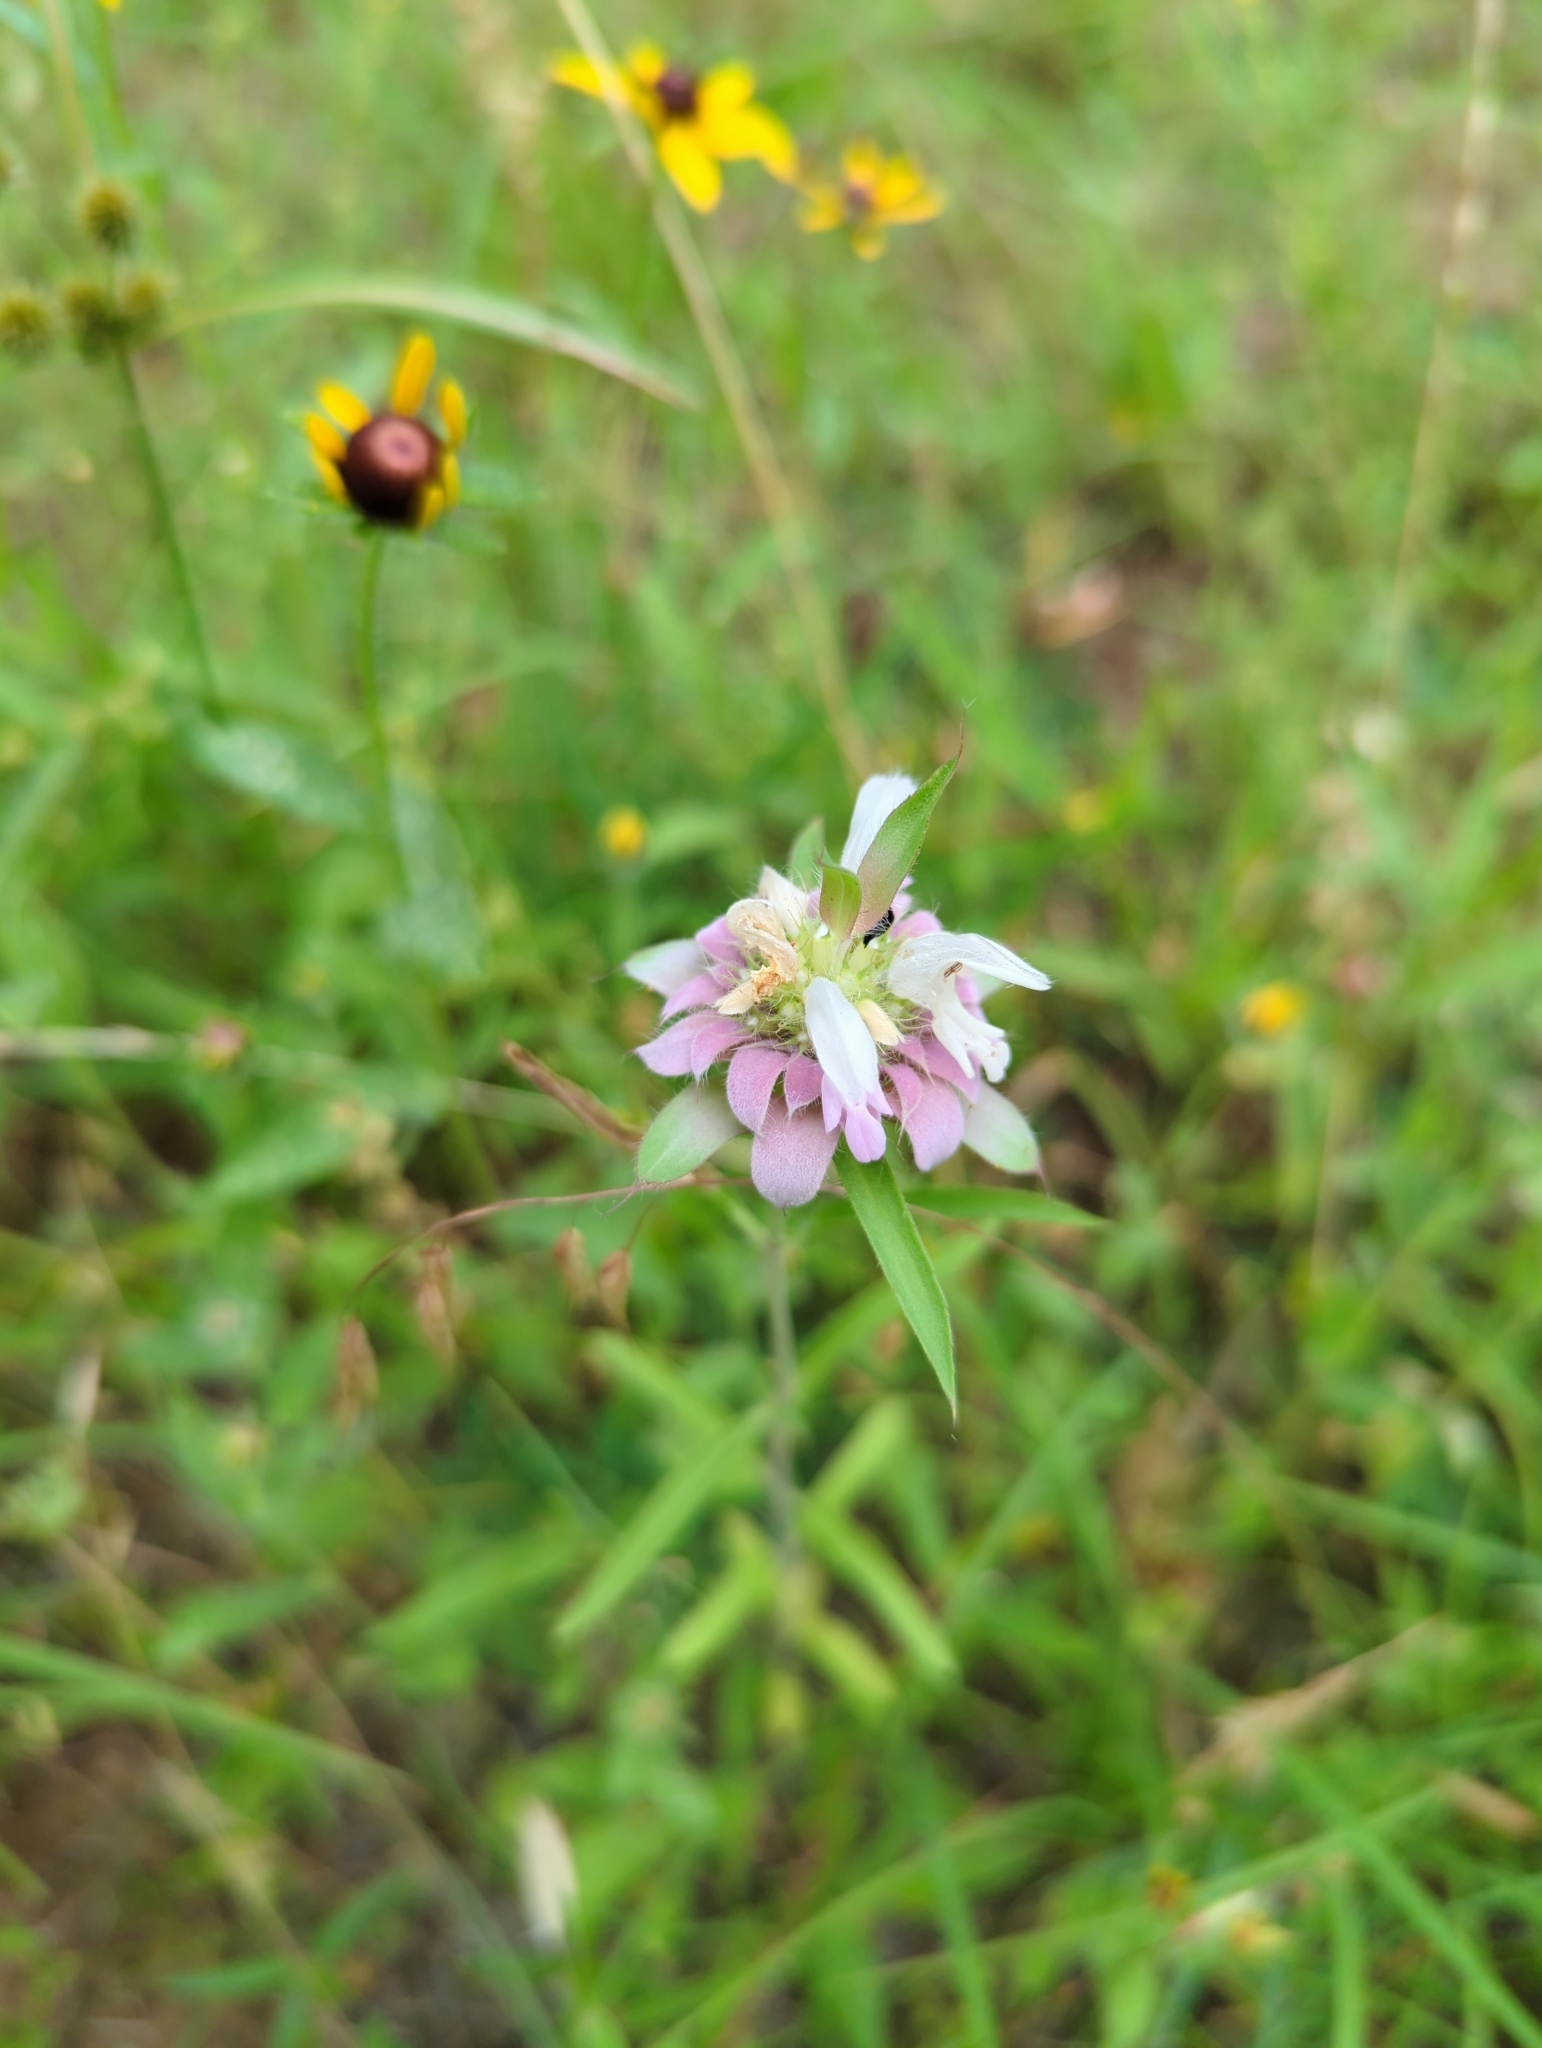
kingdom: Plantae
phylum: Tracheophyta
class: Magnoliopsida
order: Lamiales
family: Lamiaceae
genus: Monarda
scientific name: Monarda citriodora
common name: Lemon beebalm
